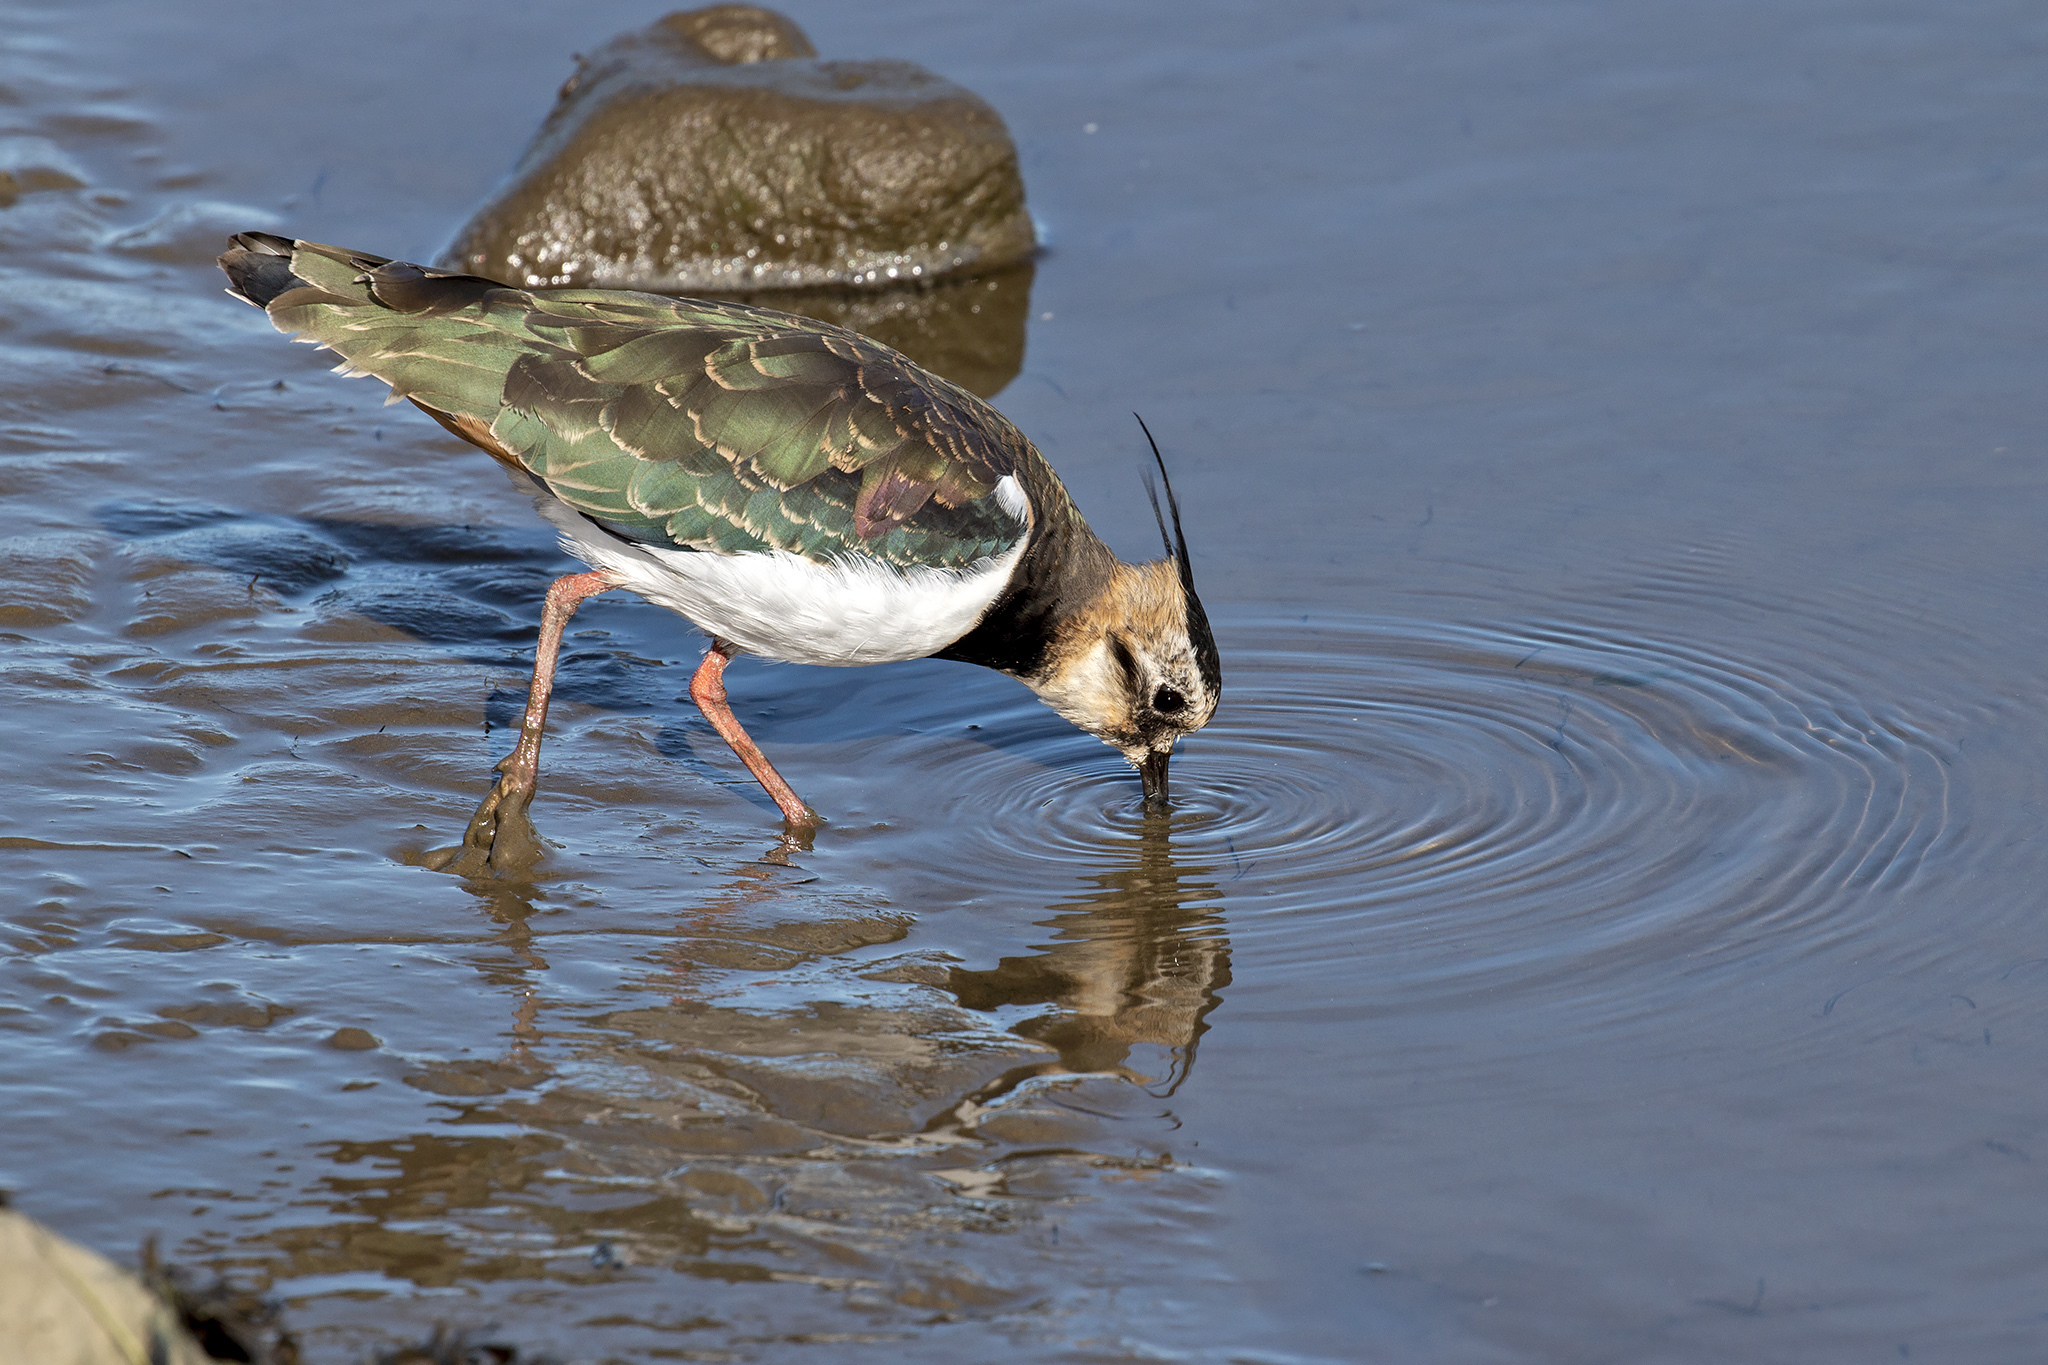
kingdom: Animalia
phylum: Chordata
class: Aves
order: Charadriiformes
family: Charadriidae
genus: Vanellus
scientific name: Vanellus vanellus
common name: Northern lapwing
